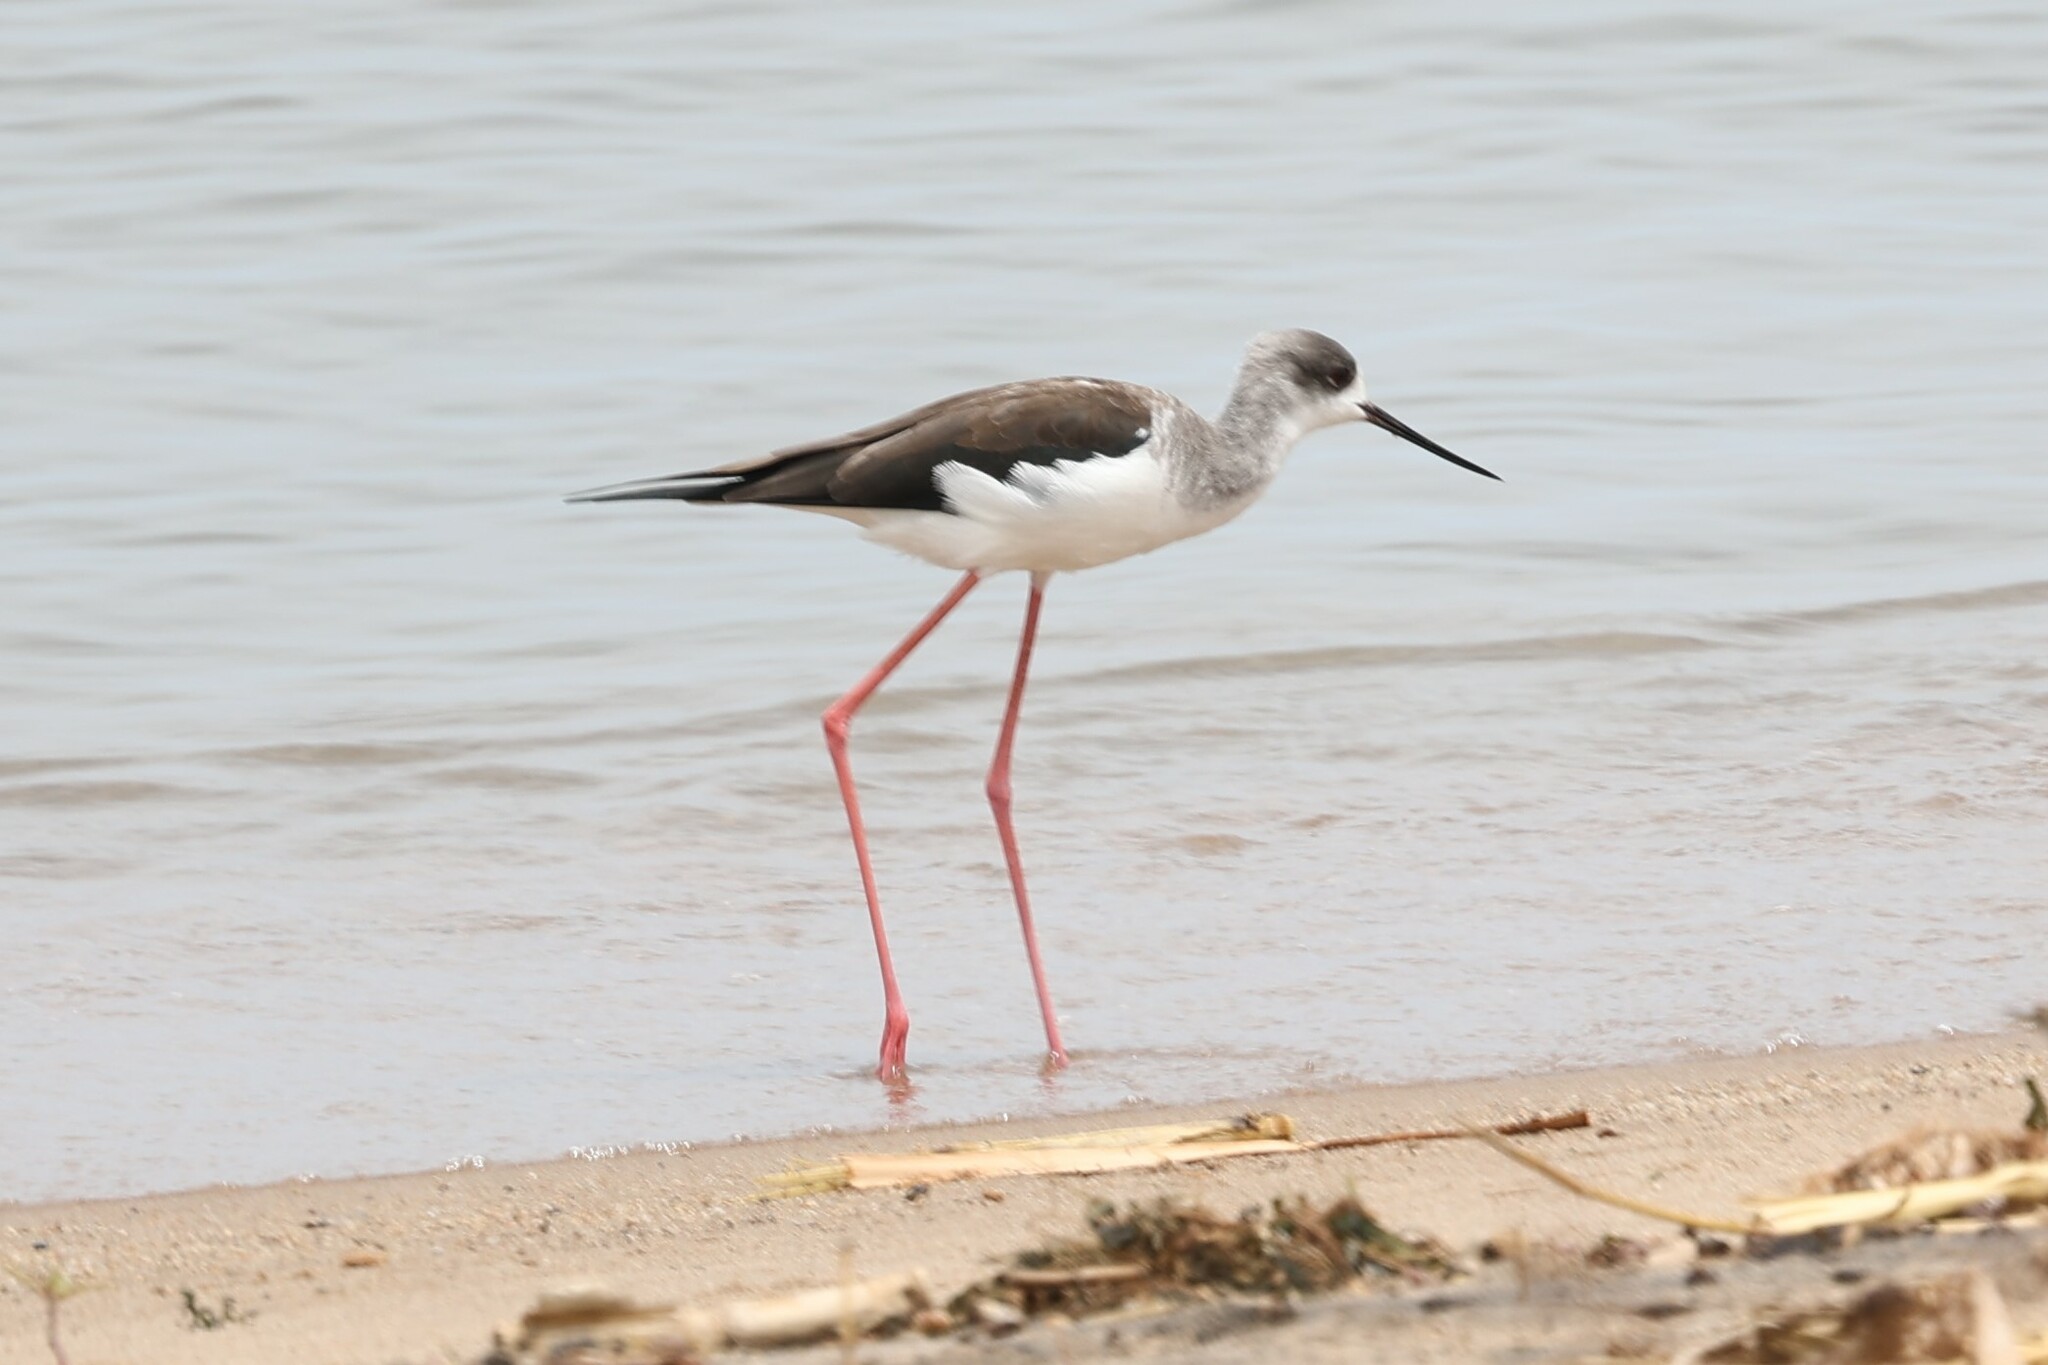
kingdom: Animalia
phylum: Chordata
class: Aves
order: Charadriiformes
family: Recurvirostridae
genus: Himantopus
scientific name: Himantopus himantopus
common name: Black-winged stilt
